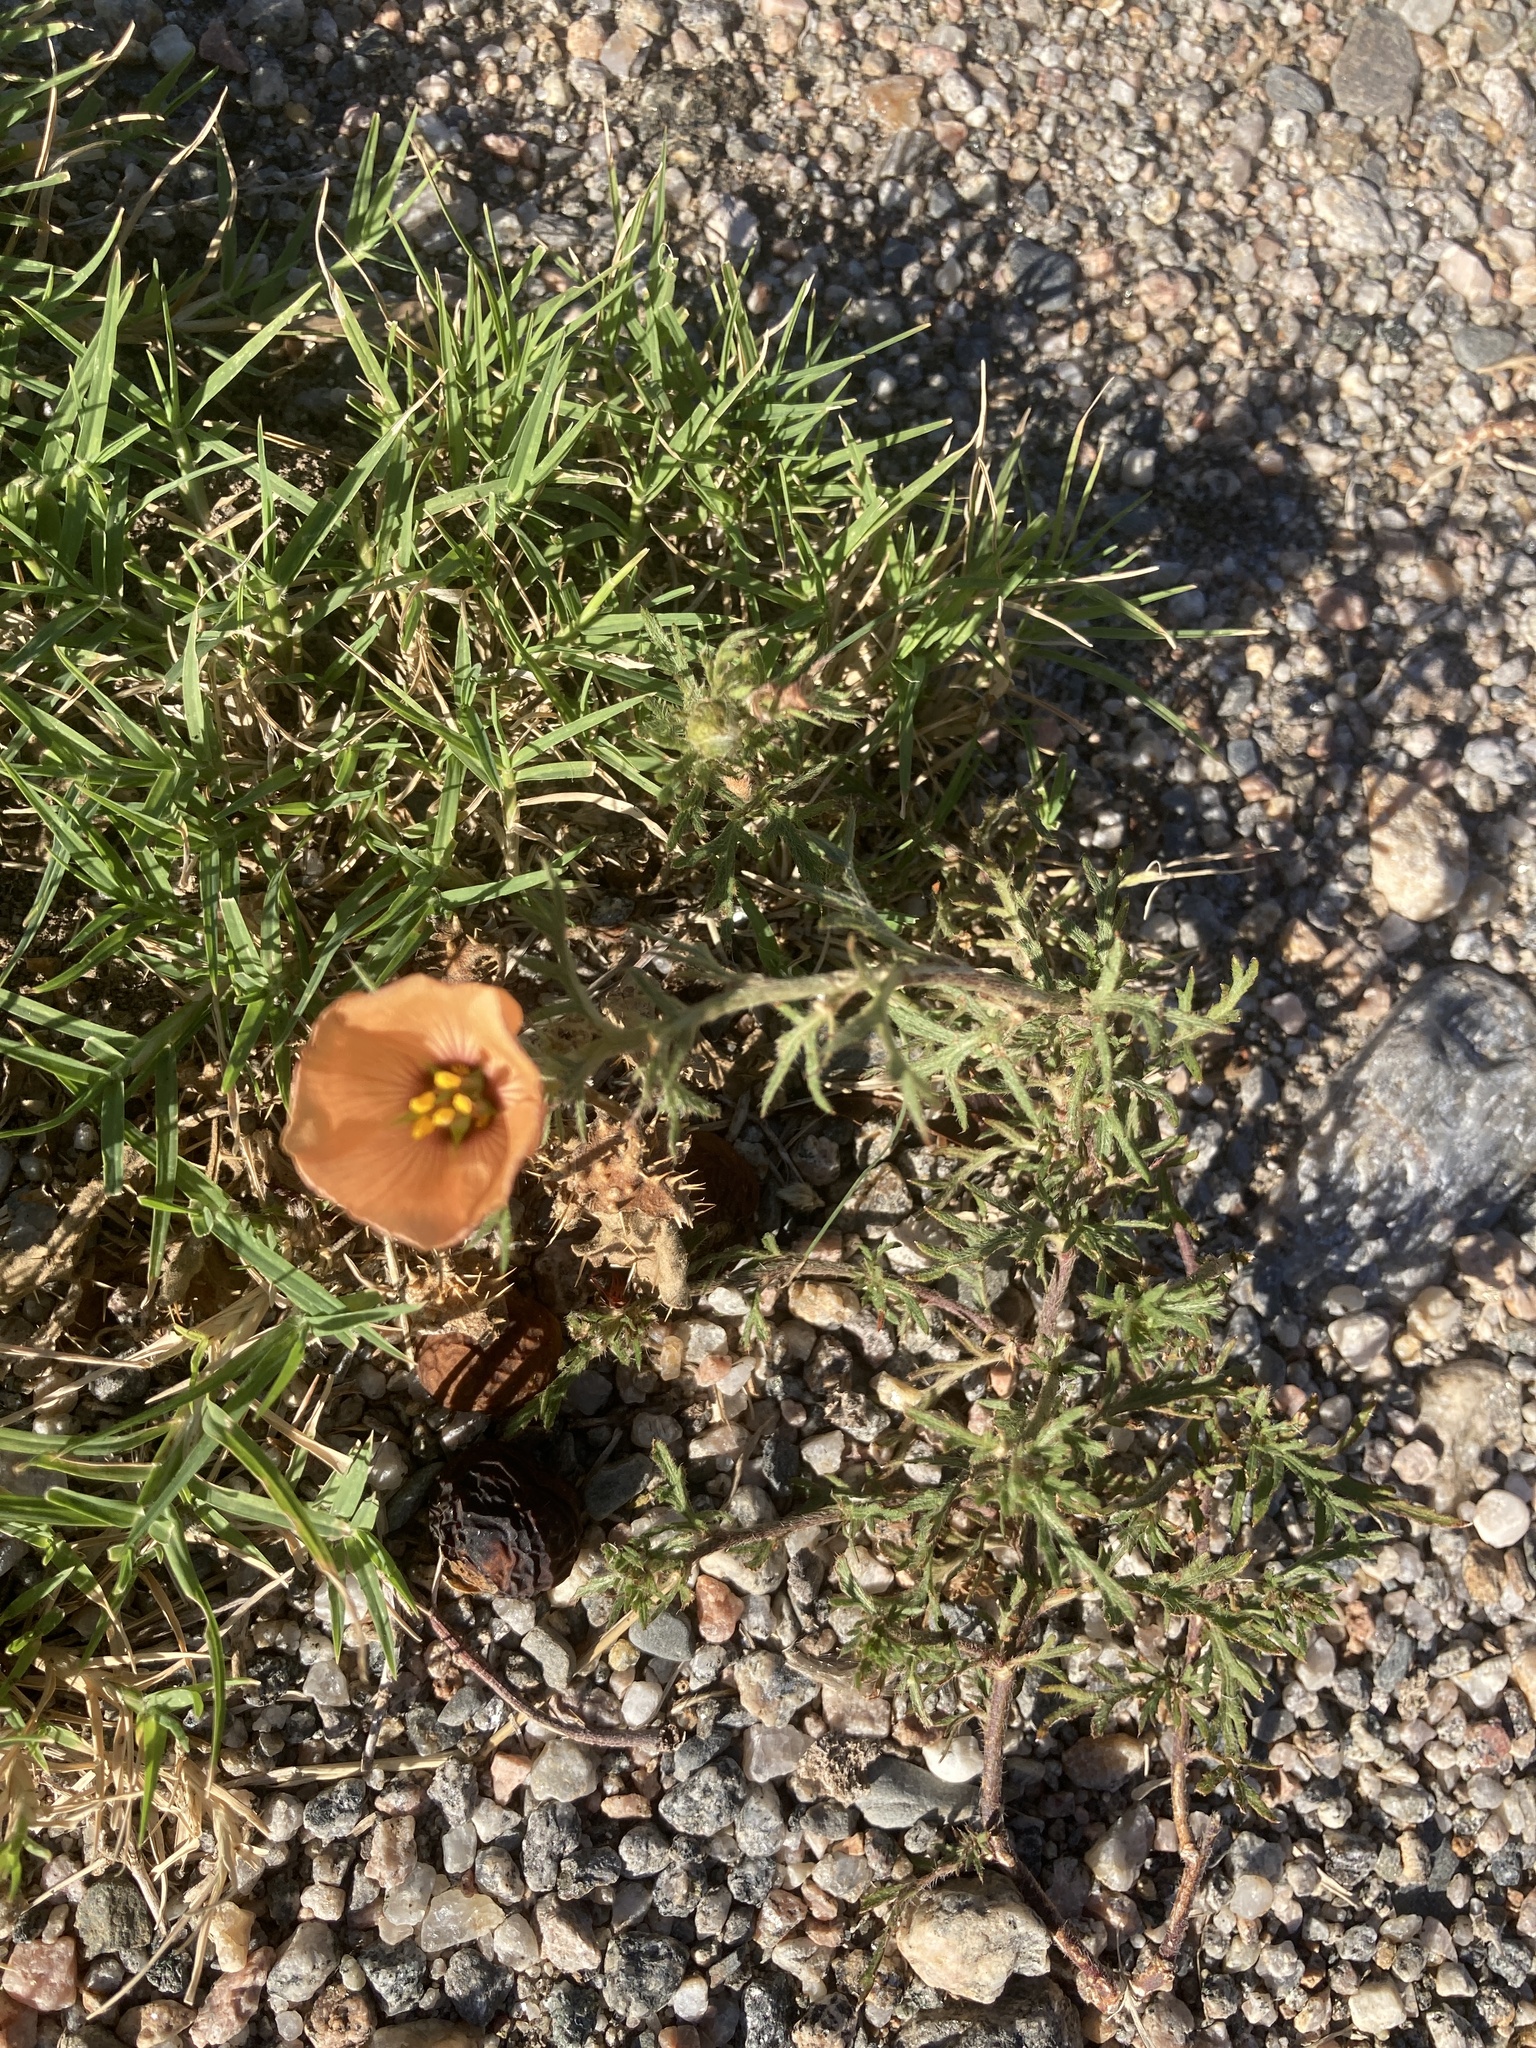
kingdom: Plantae
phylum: Tracheophyta
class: Magnoliopsida
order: Malpighiales
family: Turneraceae
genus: Turnera
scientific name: Turnera sidoides
